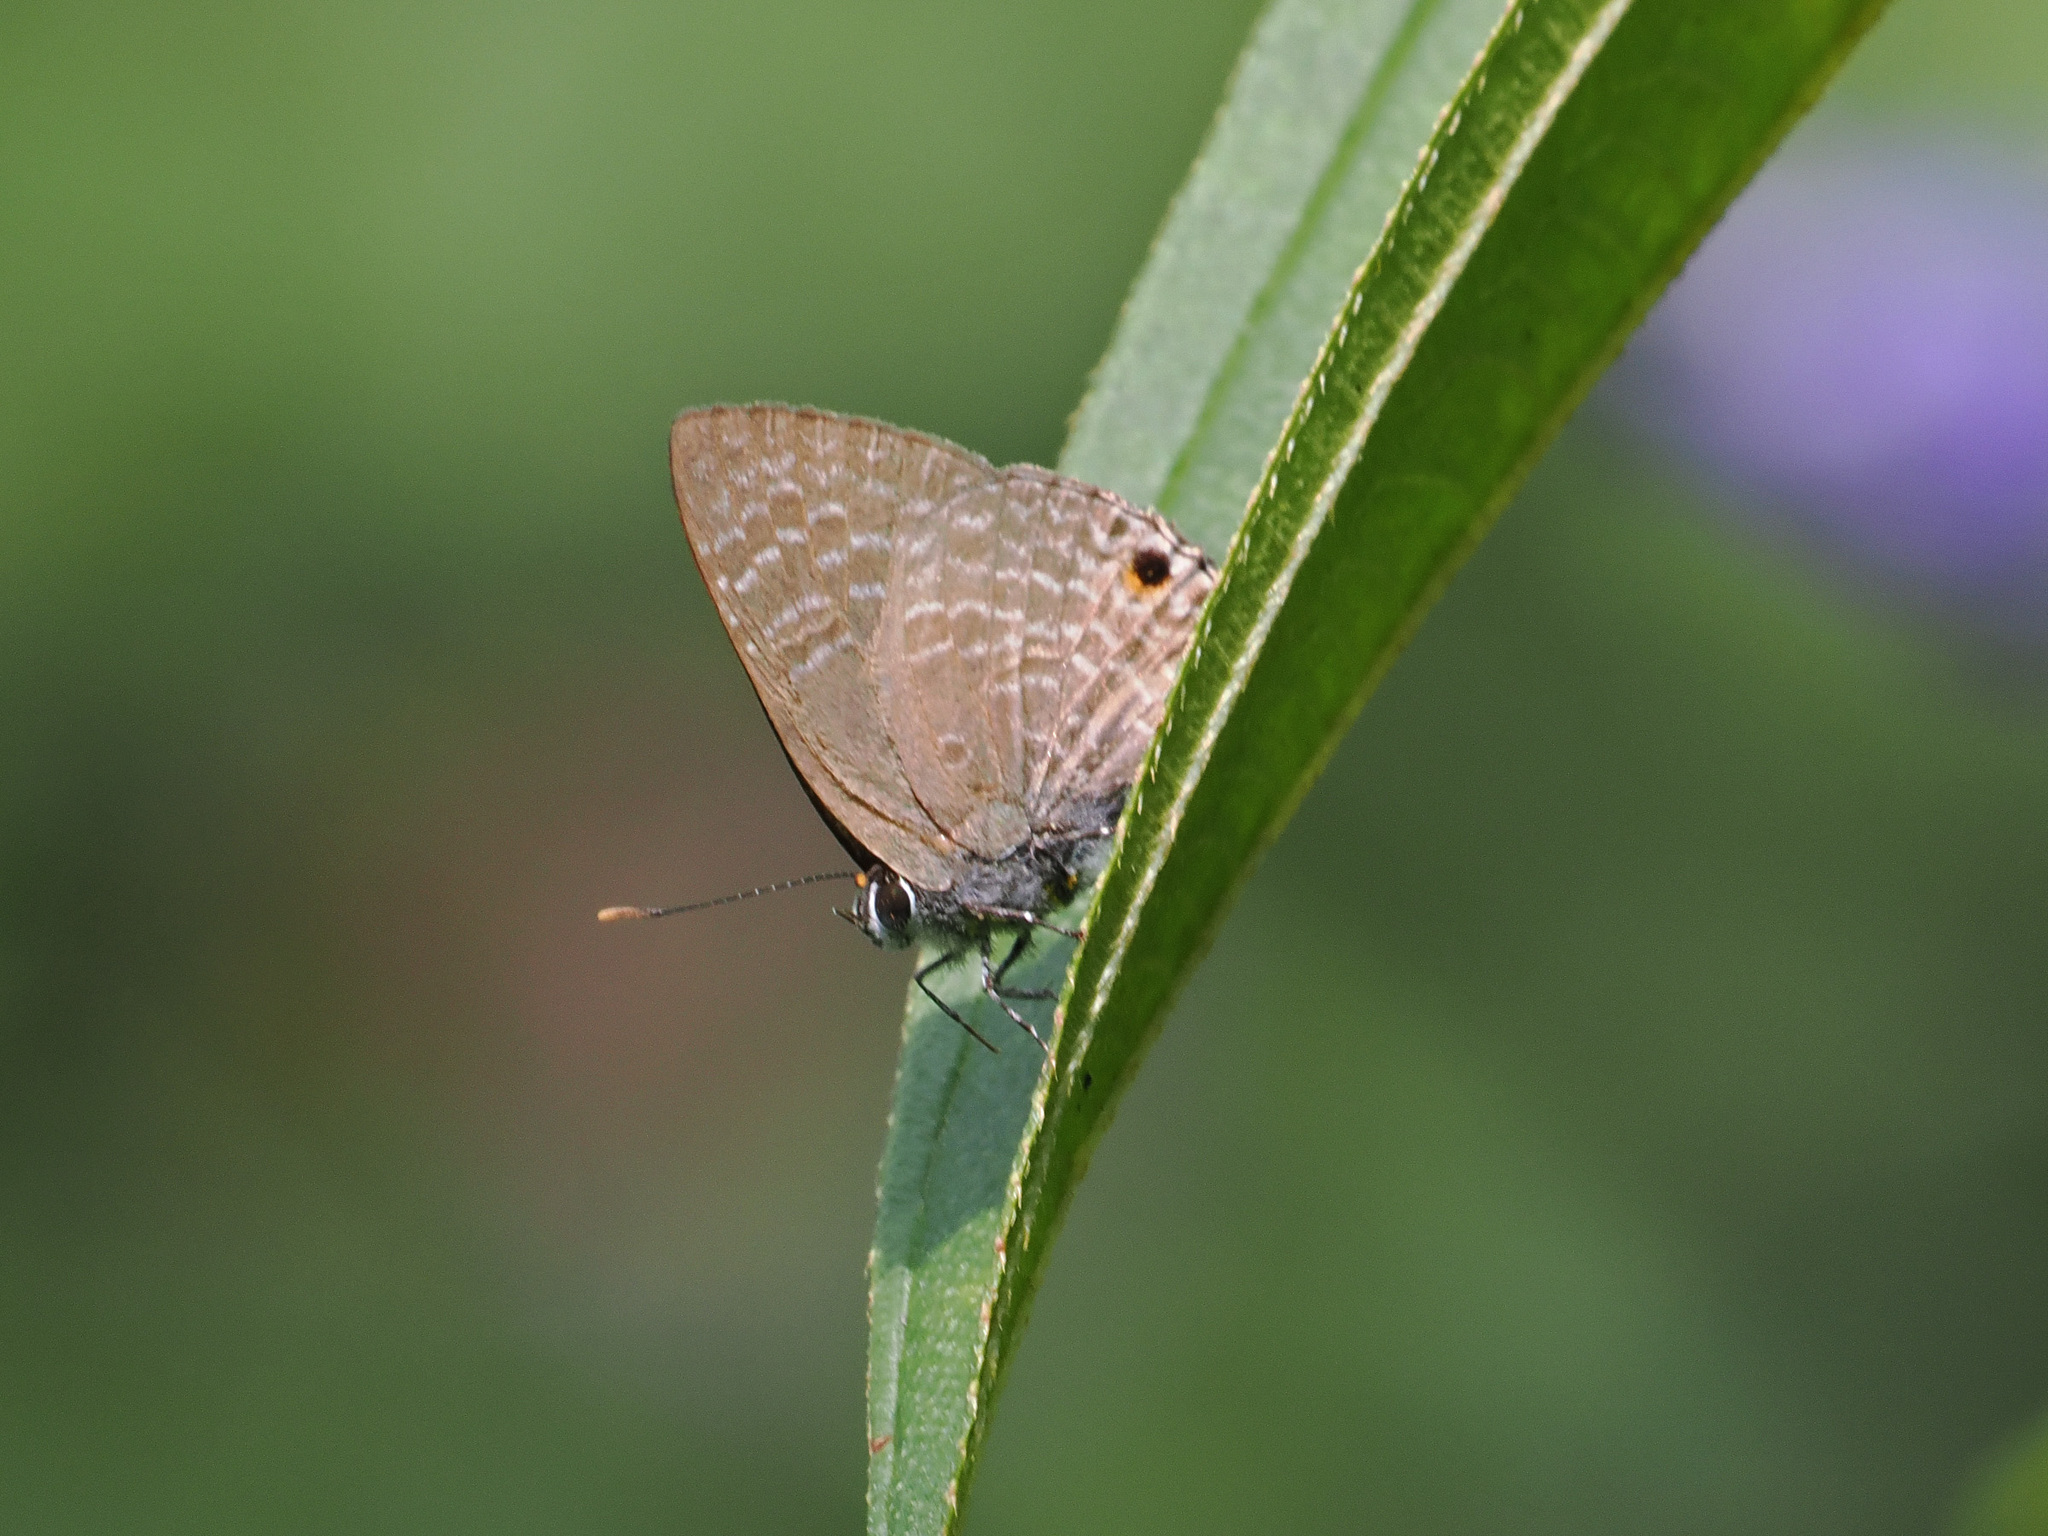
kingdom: Animalia
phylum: Arthropoda
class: Insecta
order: Lepidoptera
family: Lycaenidae
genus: Anthene
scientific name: Anthene lycaenina
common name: Pointed ciliate blue
